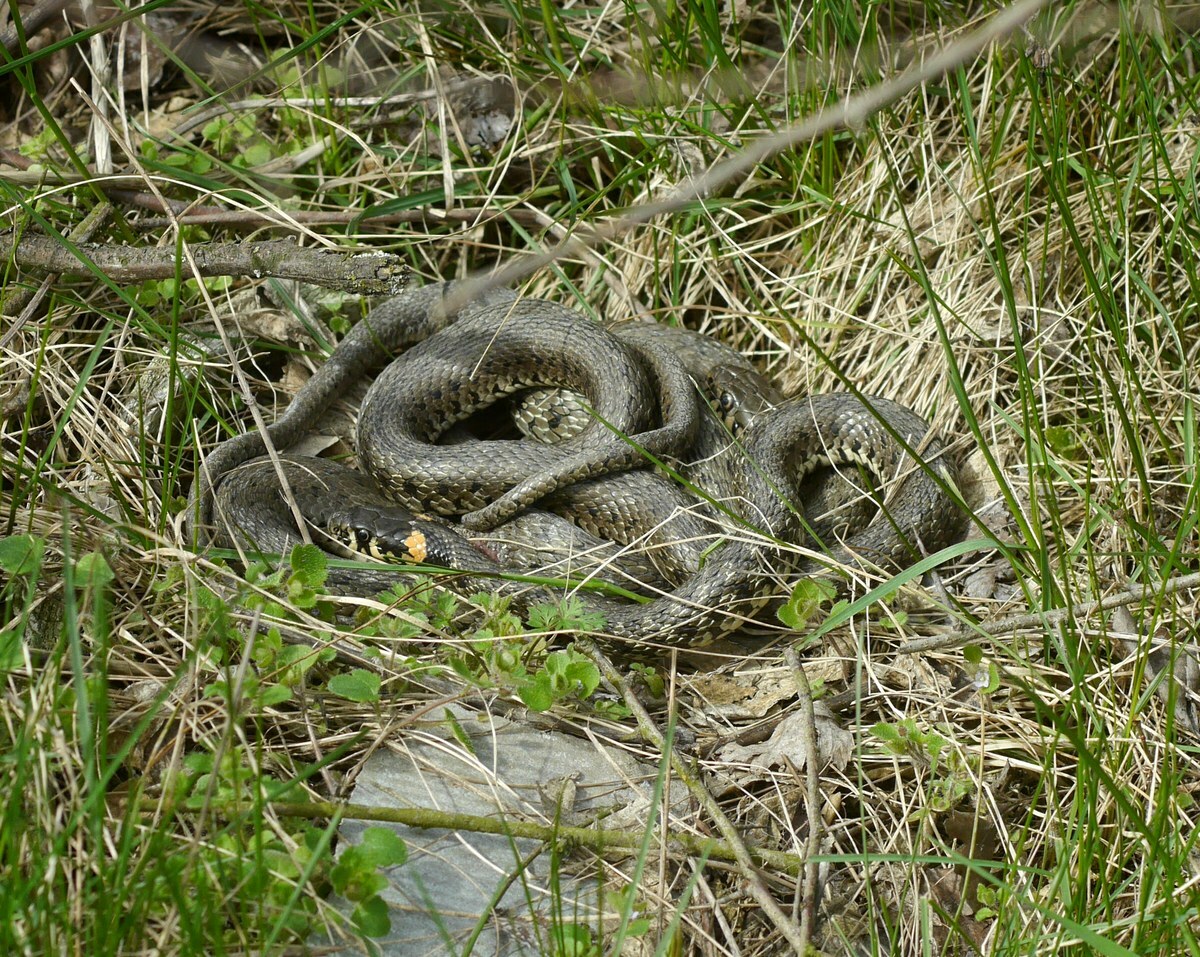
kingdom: Animalia
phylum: Chordata
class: Squamata
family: Colubridae
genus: Natrix
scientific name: Natrix natrix
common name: Grass snake
